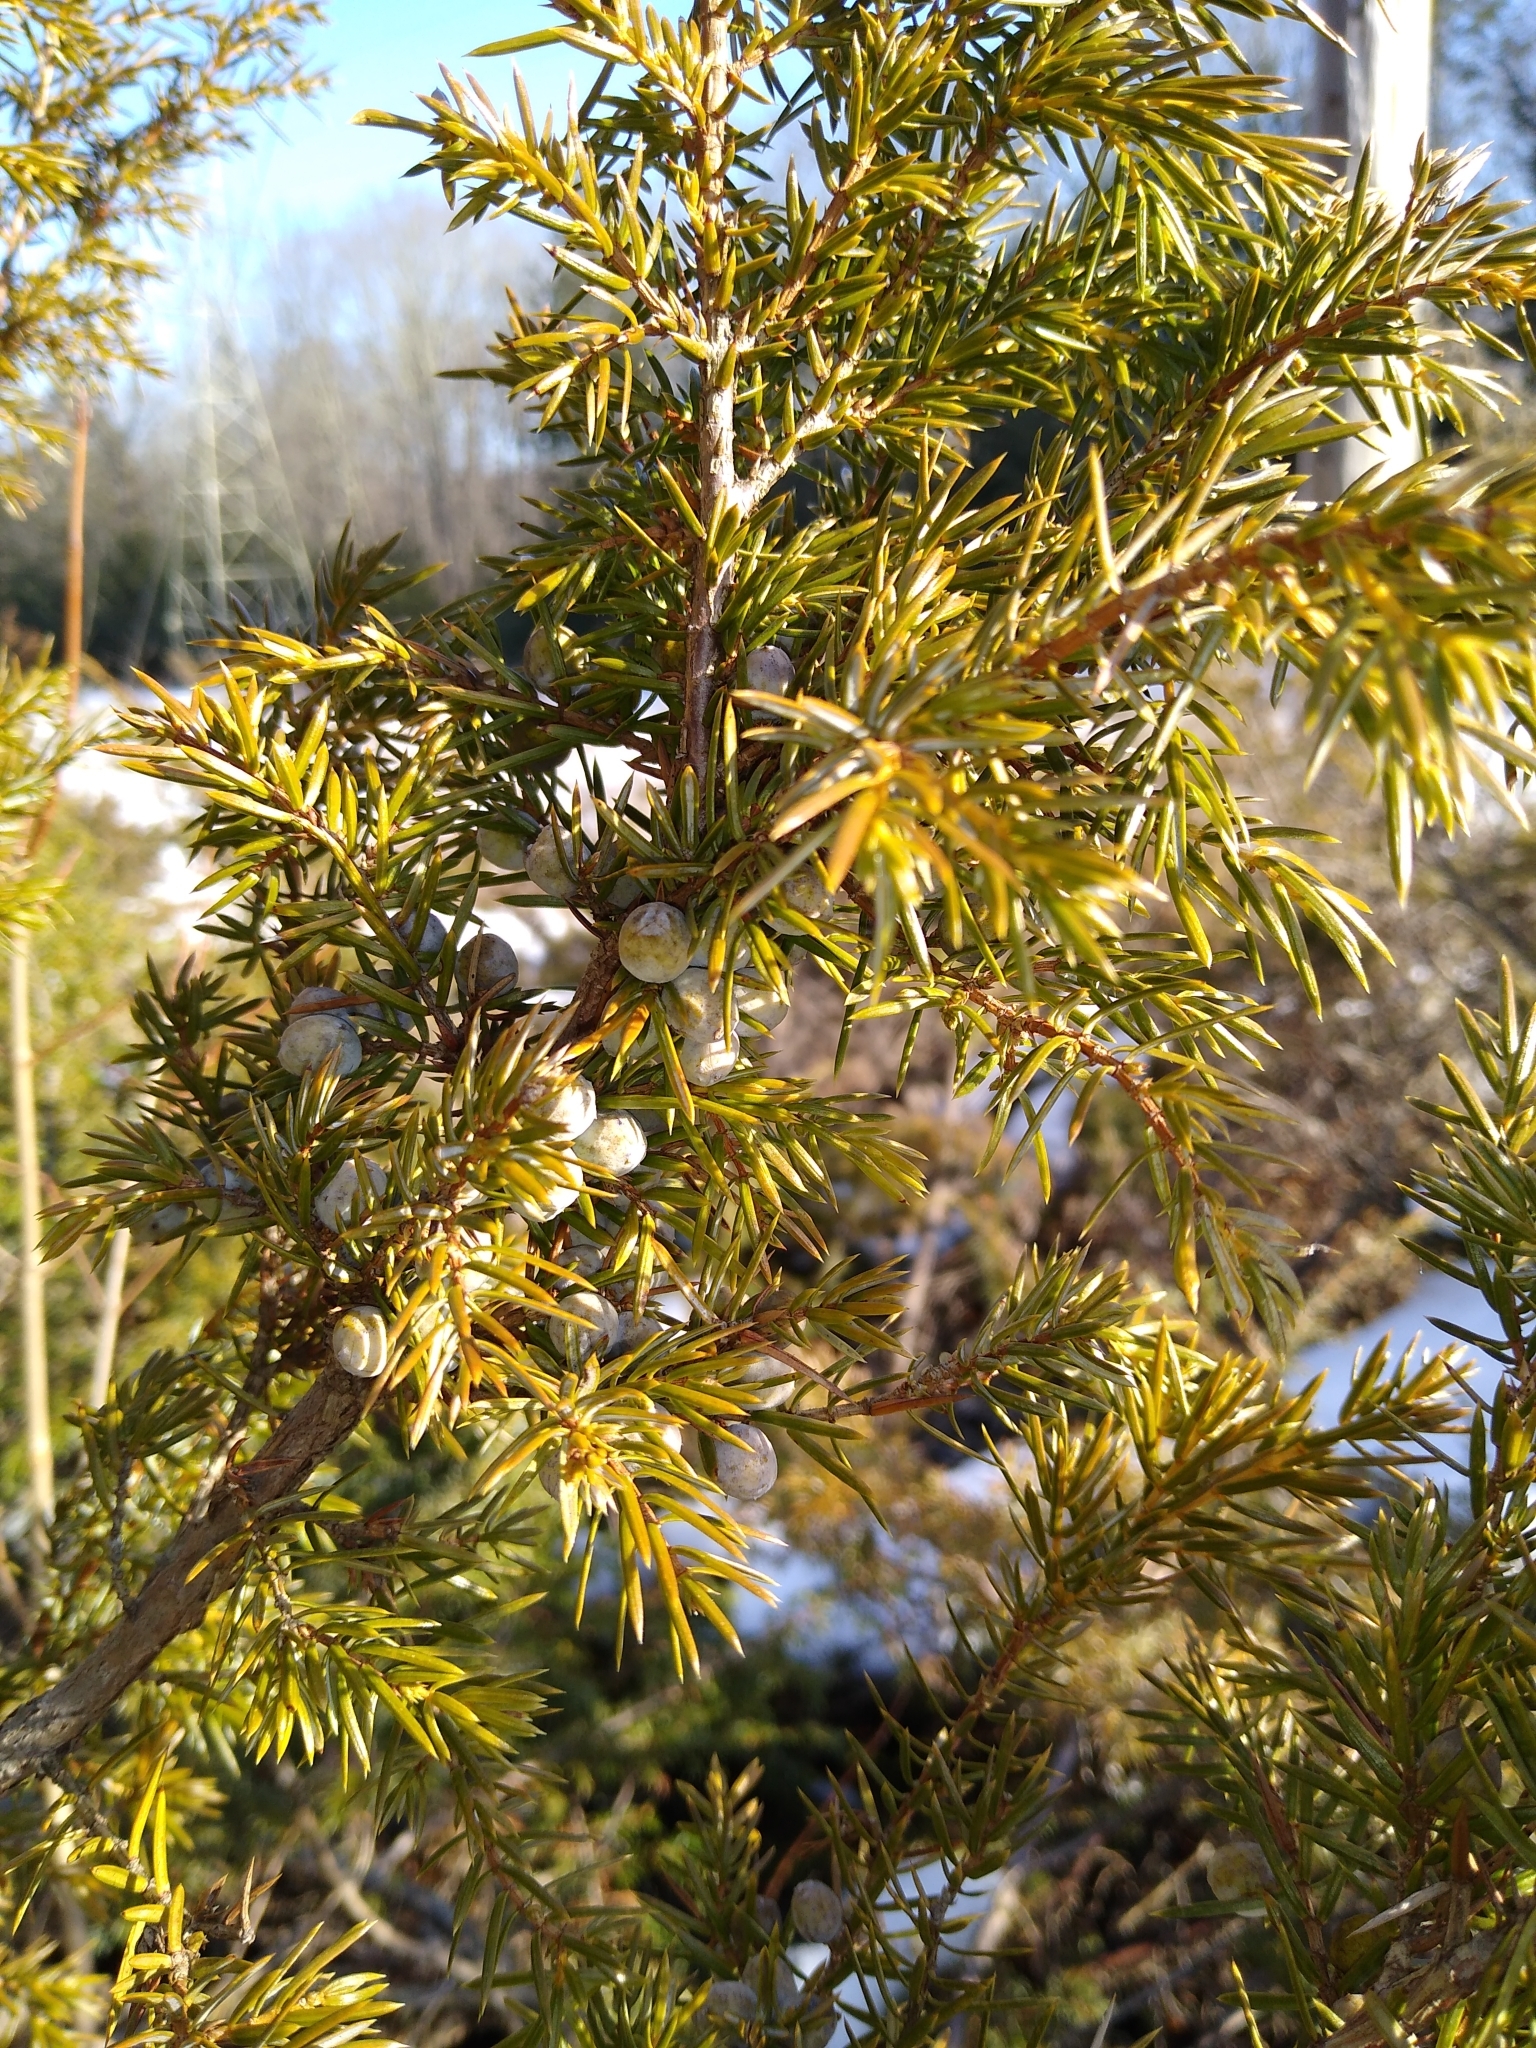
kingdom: Plantae
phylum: Tracheophyta
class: Pinopsida
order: Pinales
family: Cupressaceae
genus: Juniperus
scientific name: Juniperus communis
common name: Common juniper
